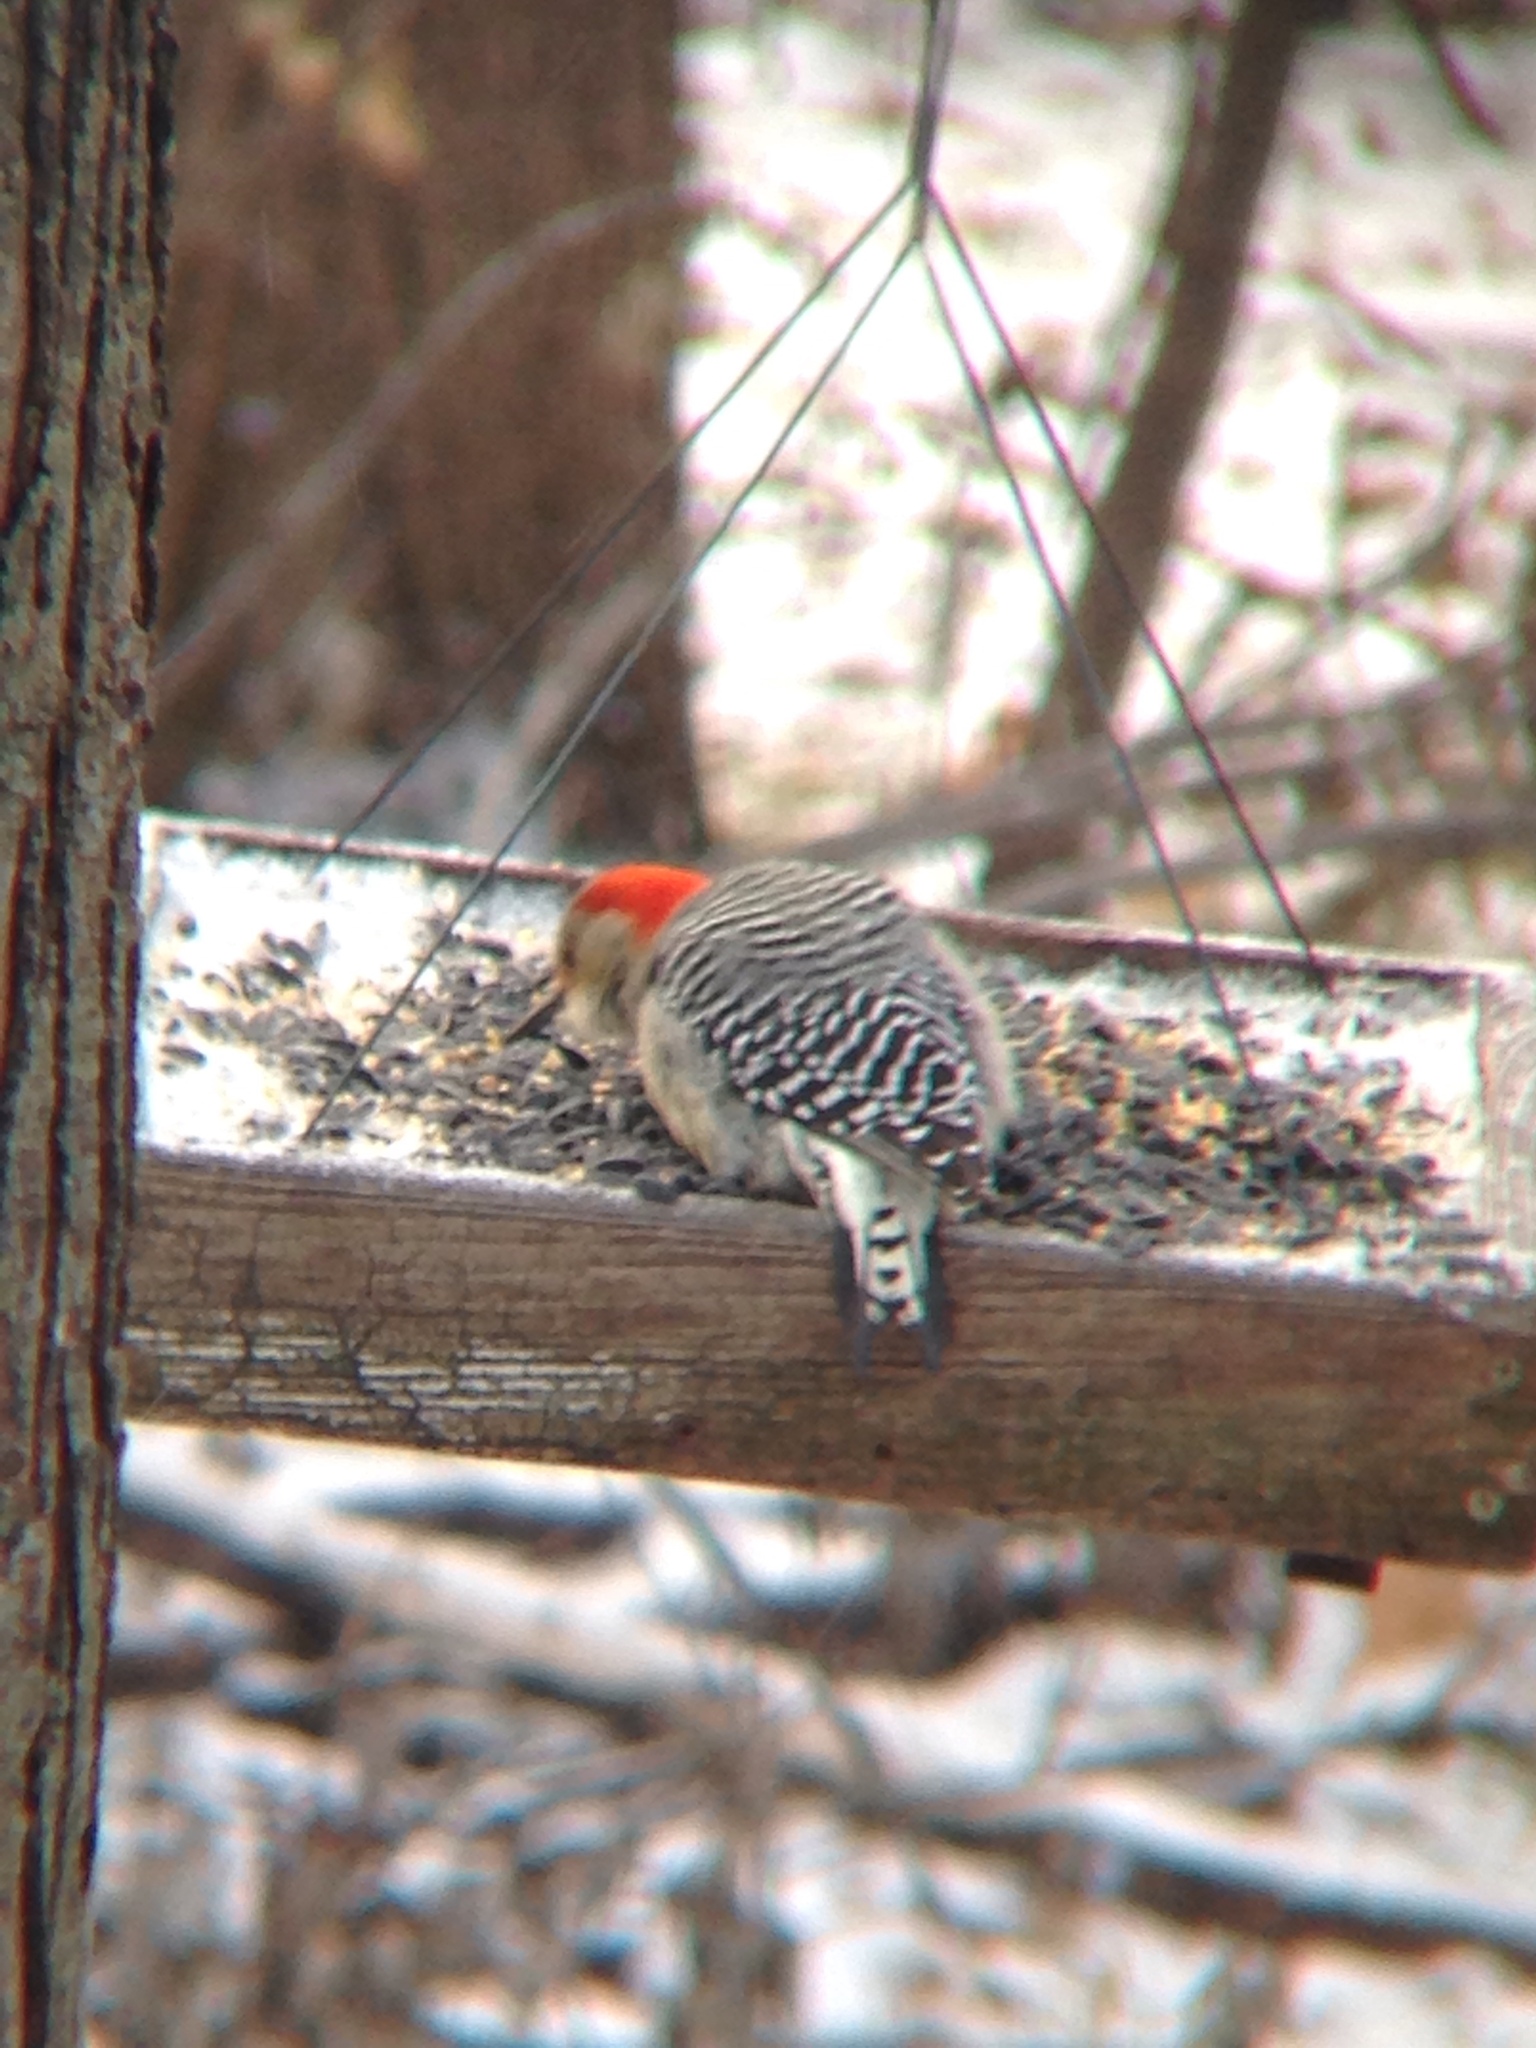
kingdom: Animalia
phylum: Chordata
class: Aves
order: Piciformes
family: Picidae
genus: Melanerpes
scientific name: Melanerpes carolinus
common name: Red-bellied woodpecker
